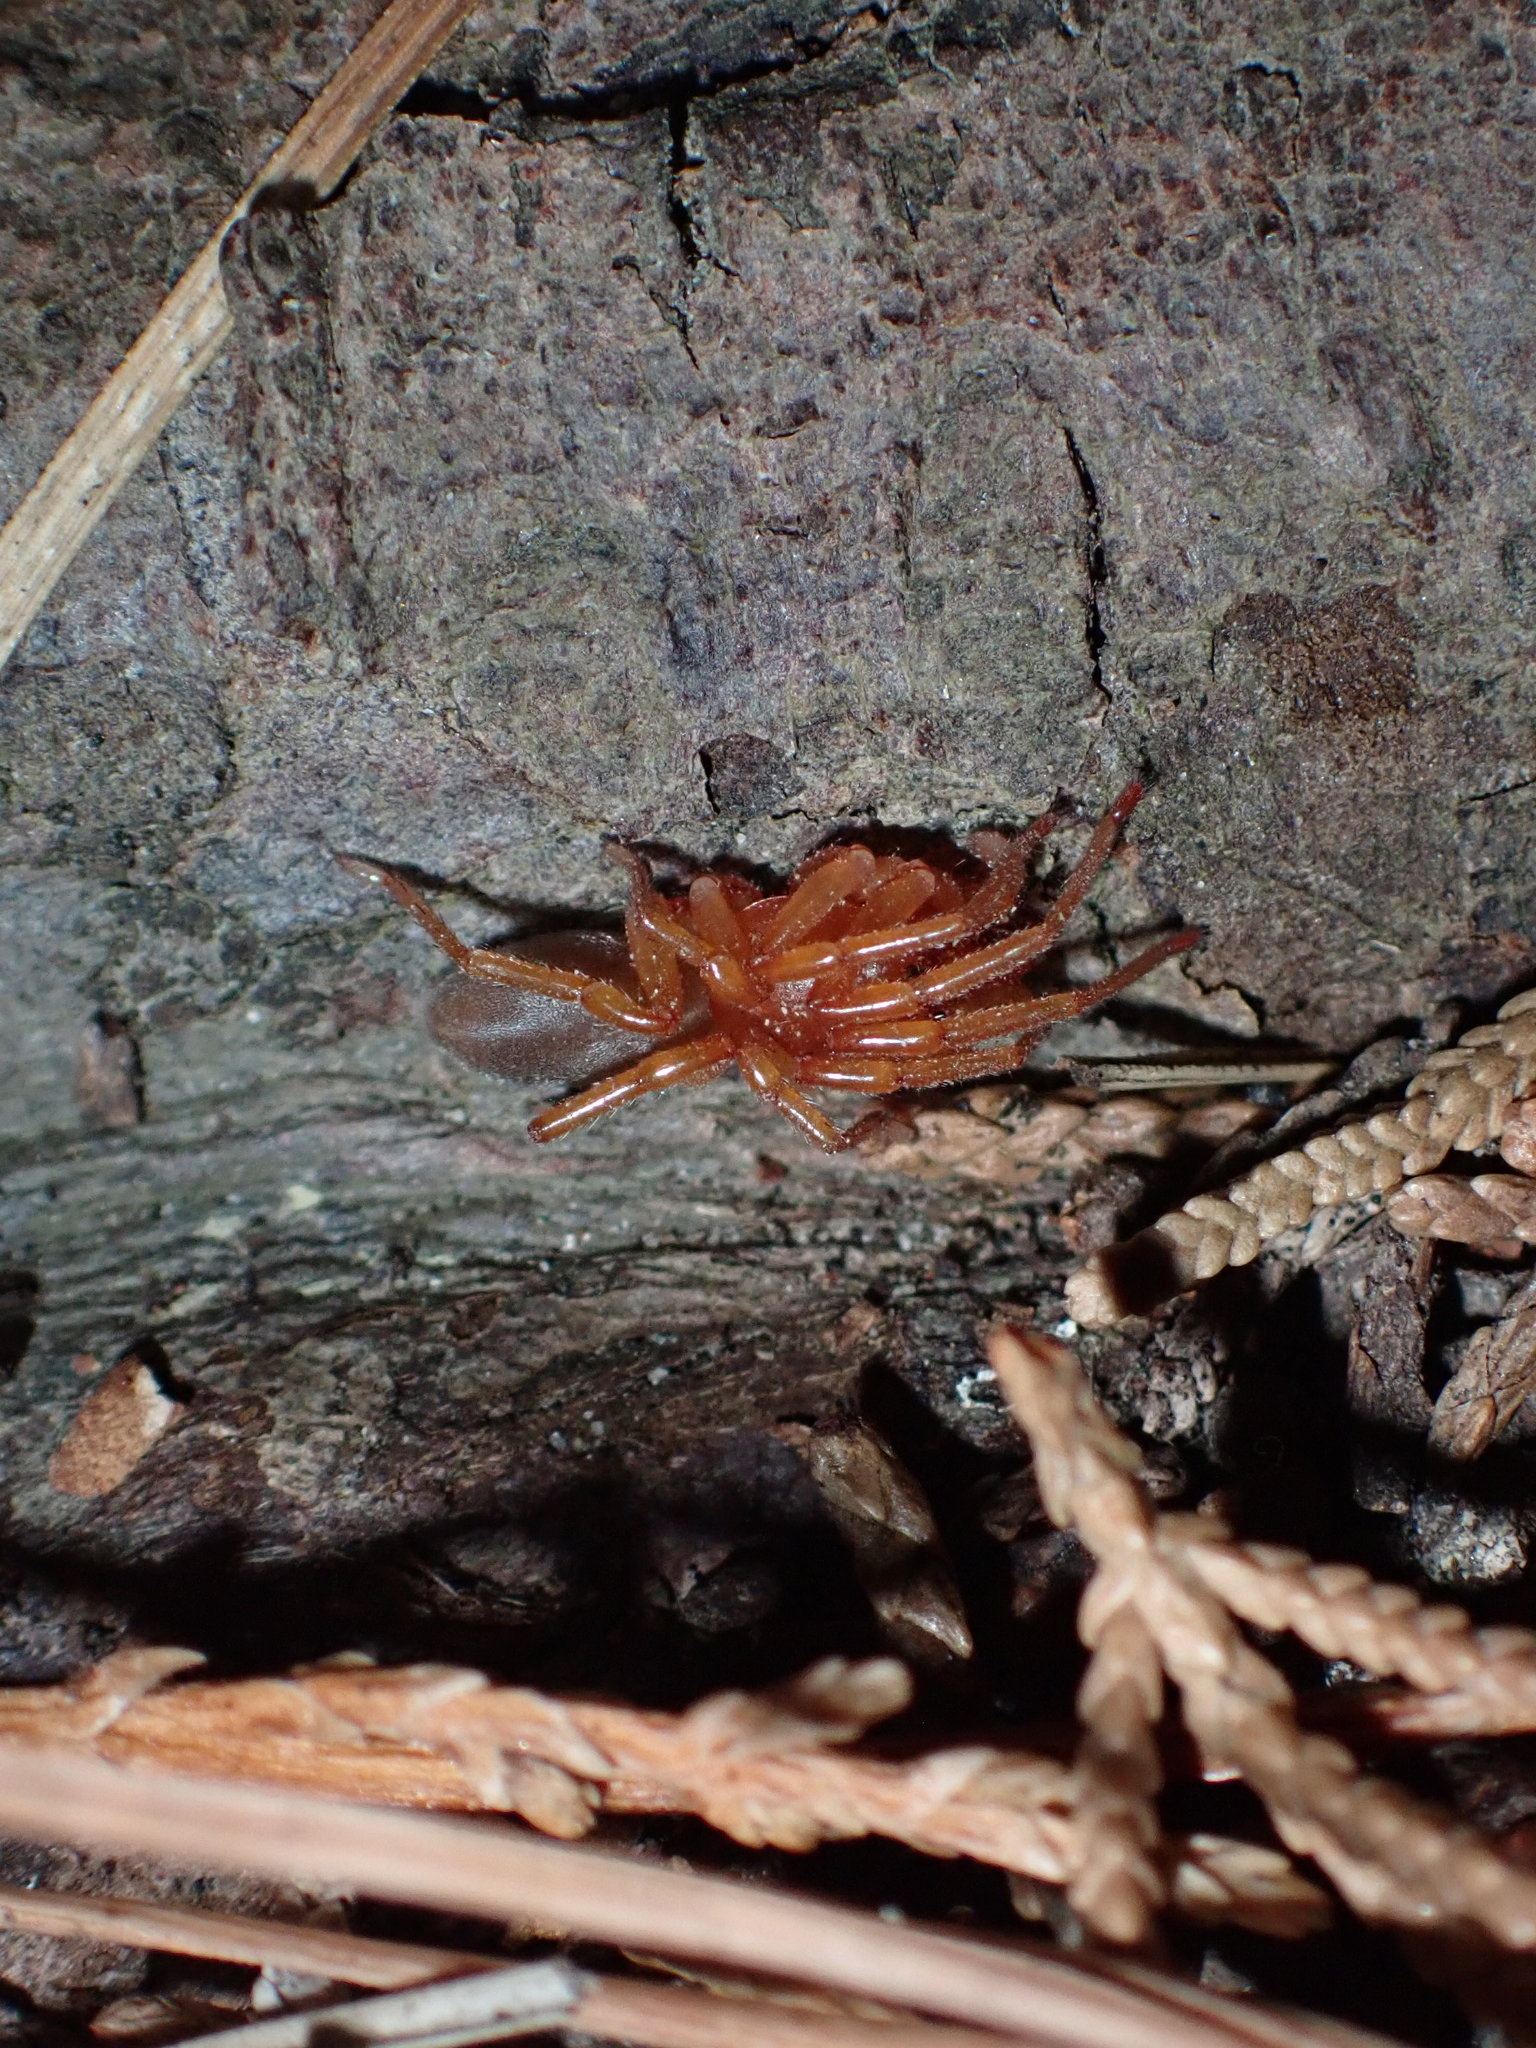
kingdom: Animalia
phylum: Arthropoda
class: Arachnida
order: Araneae
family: Dysderidae
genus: Dysdera
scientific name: Dysdera crocata
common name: Woodlouse spider
